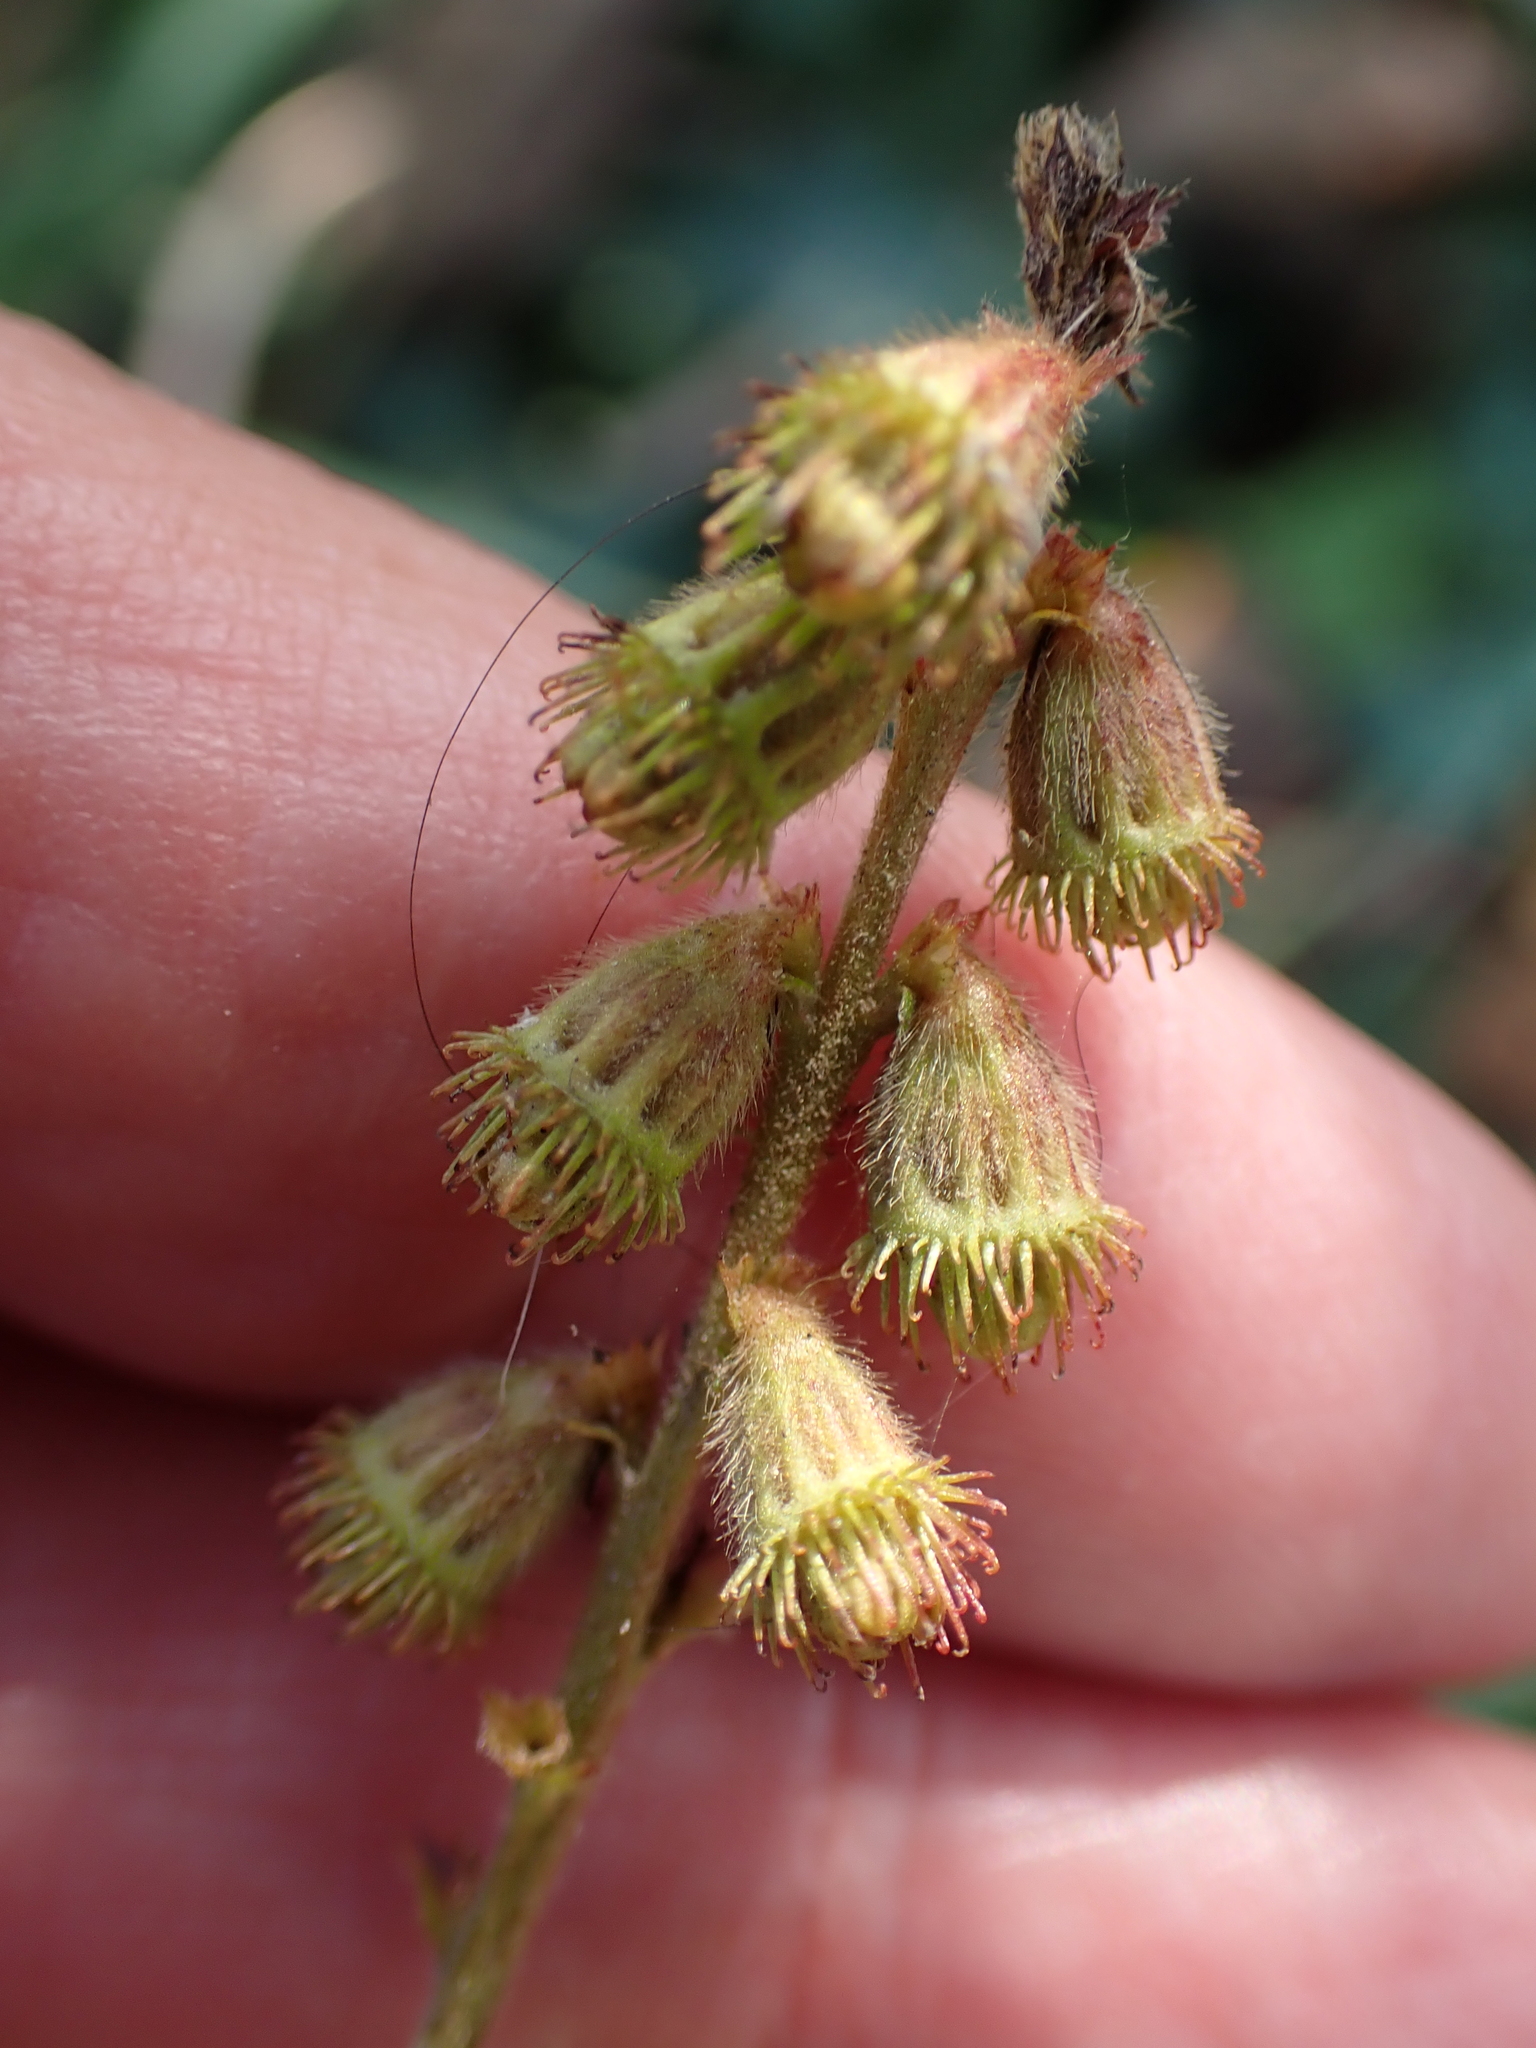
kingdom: Plantae
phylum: Tracheophyta
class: Magnoliopsida
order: Rosales
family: Rosaceae
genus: Agrimonia
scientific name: Agrimonia eupatoria
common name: Agrimony
